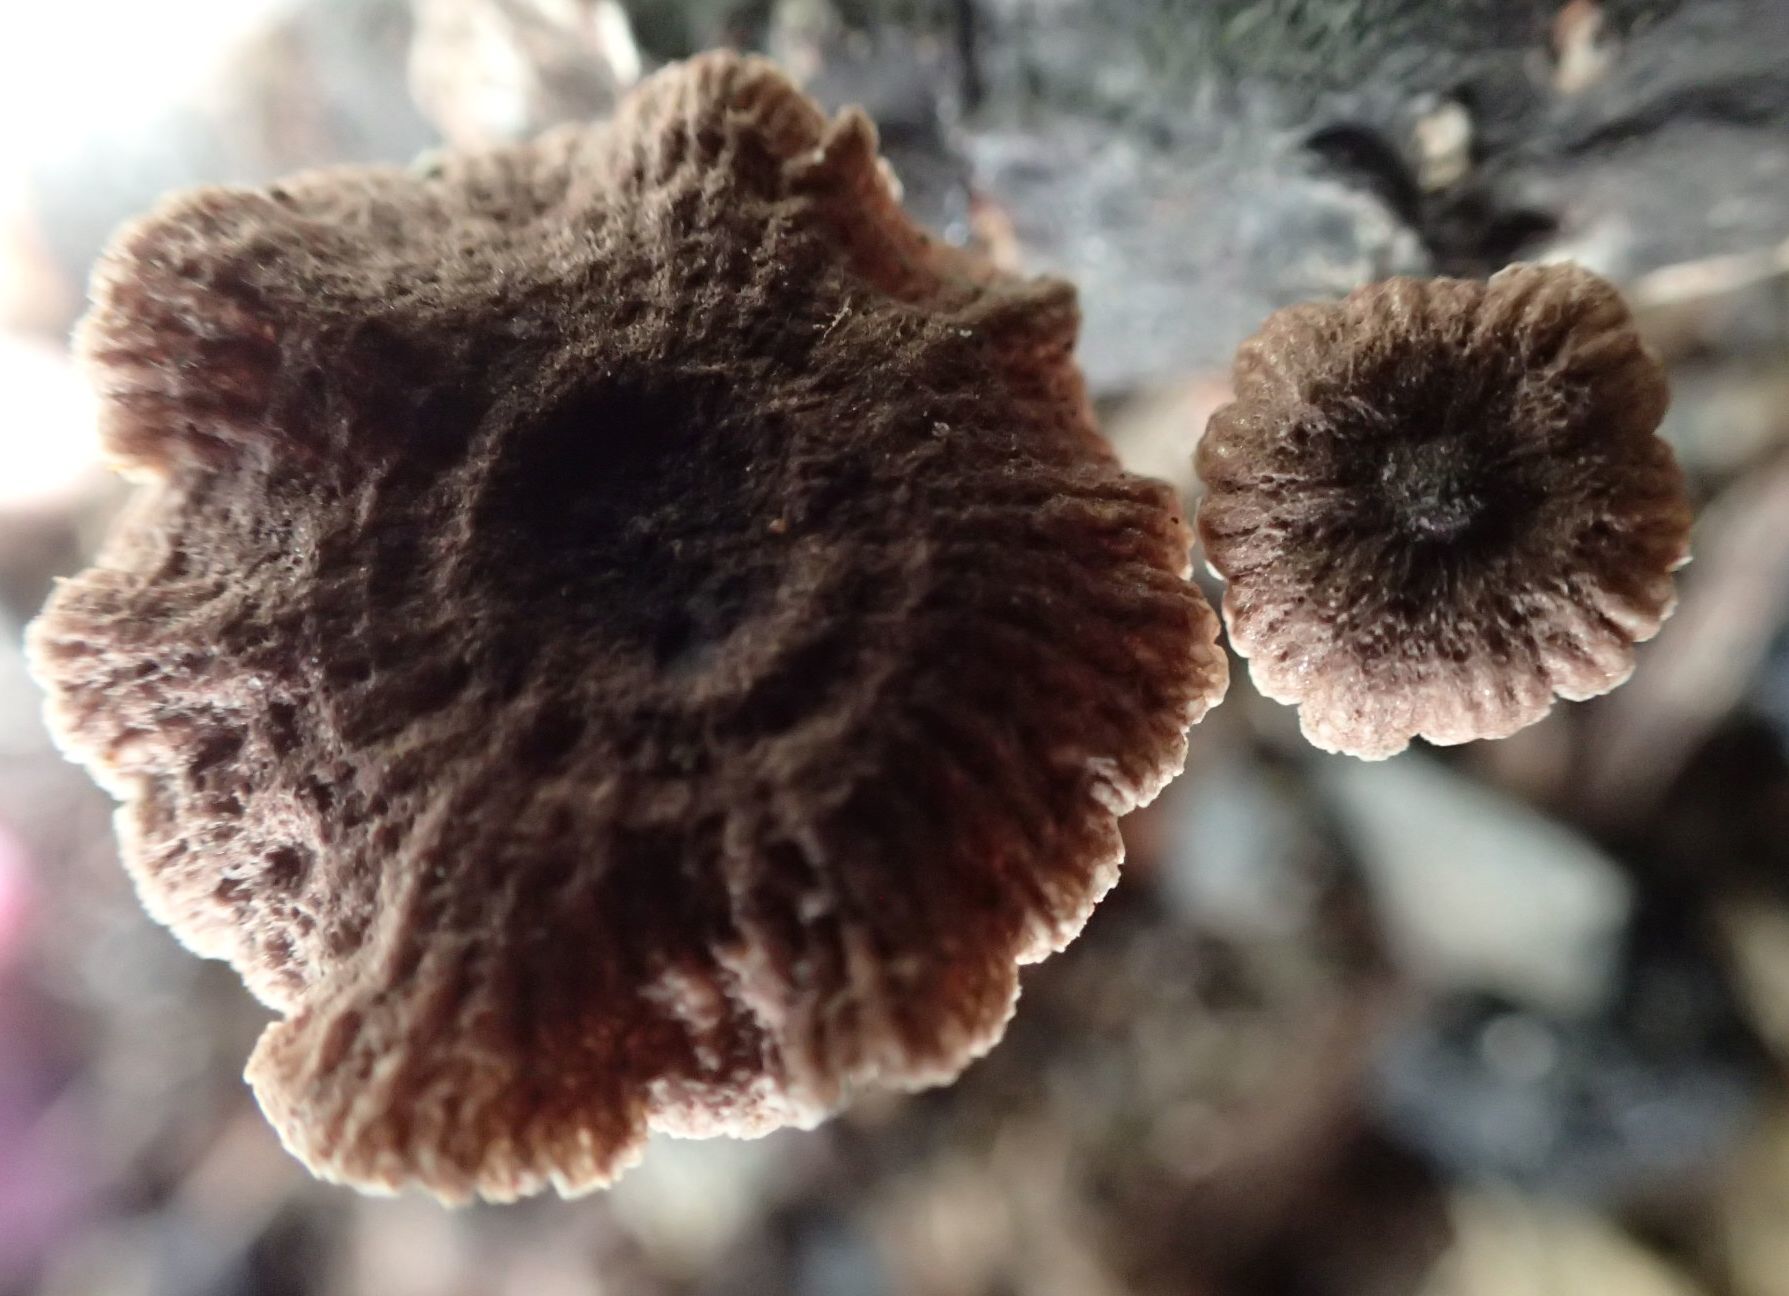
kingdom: Fungi
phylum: Basidiomycota
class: Agaricomycetes
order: Agaricales
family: Omphalotaceae
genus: Gymnopus
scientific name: Gymnopus ceraceicola
